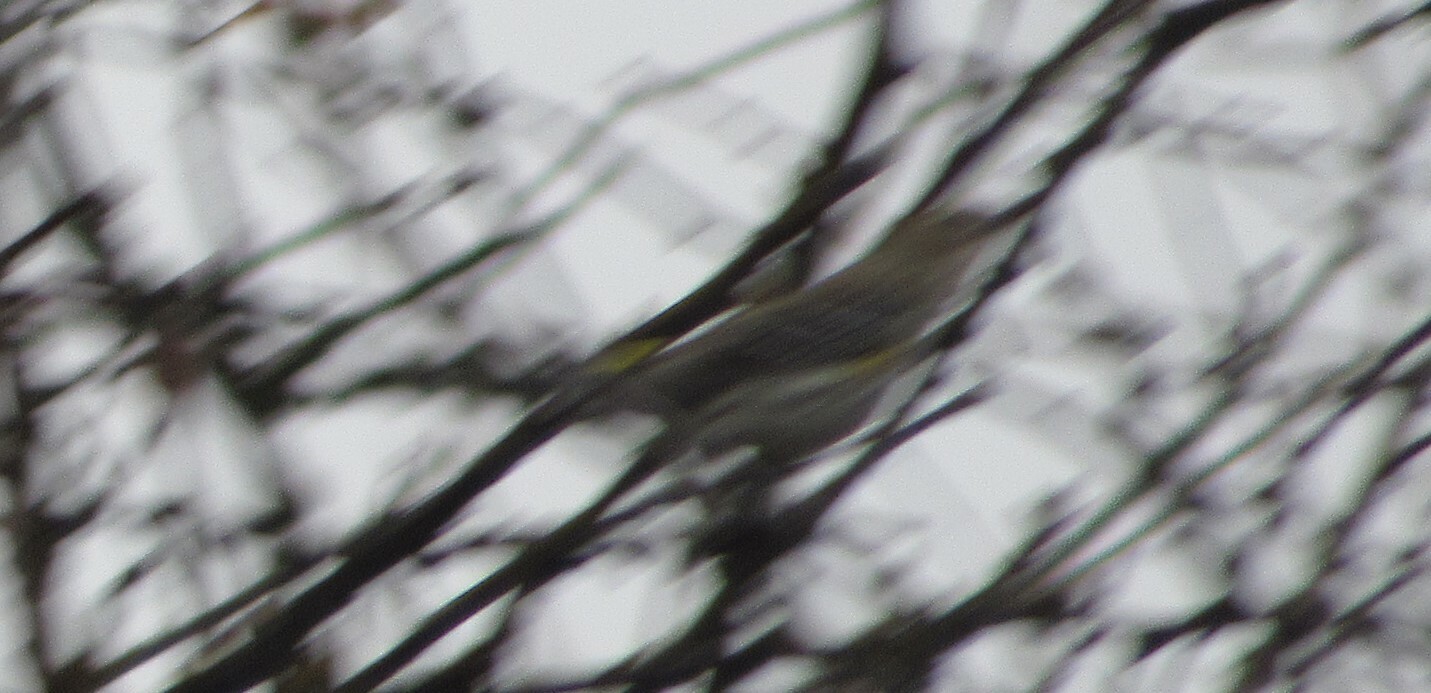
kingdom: Animalia
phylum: Chordata
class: Aves
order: Passeriformes
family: Parulidae
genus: Setophaga
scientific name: Setophaga coronata
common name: Myrtle warbler
